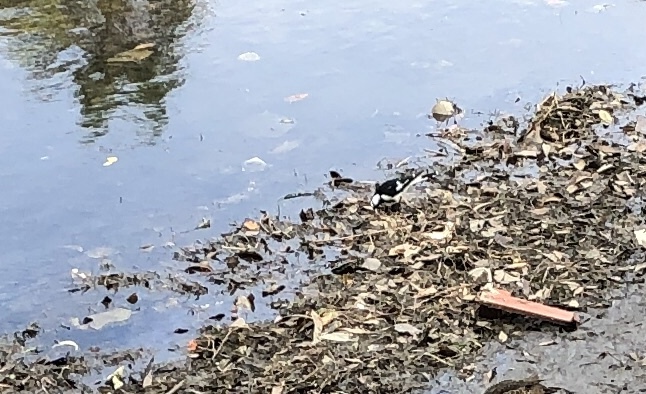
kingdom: Animalia
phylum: Chordata
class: Aves
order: Passeriformes
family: Monarchidae
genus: Grallina
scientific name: Grallina cyanoleuca
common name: Magpie-lark
